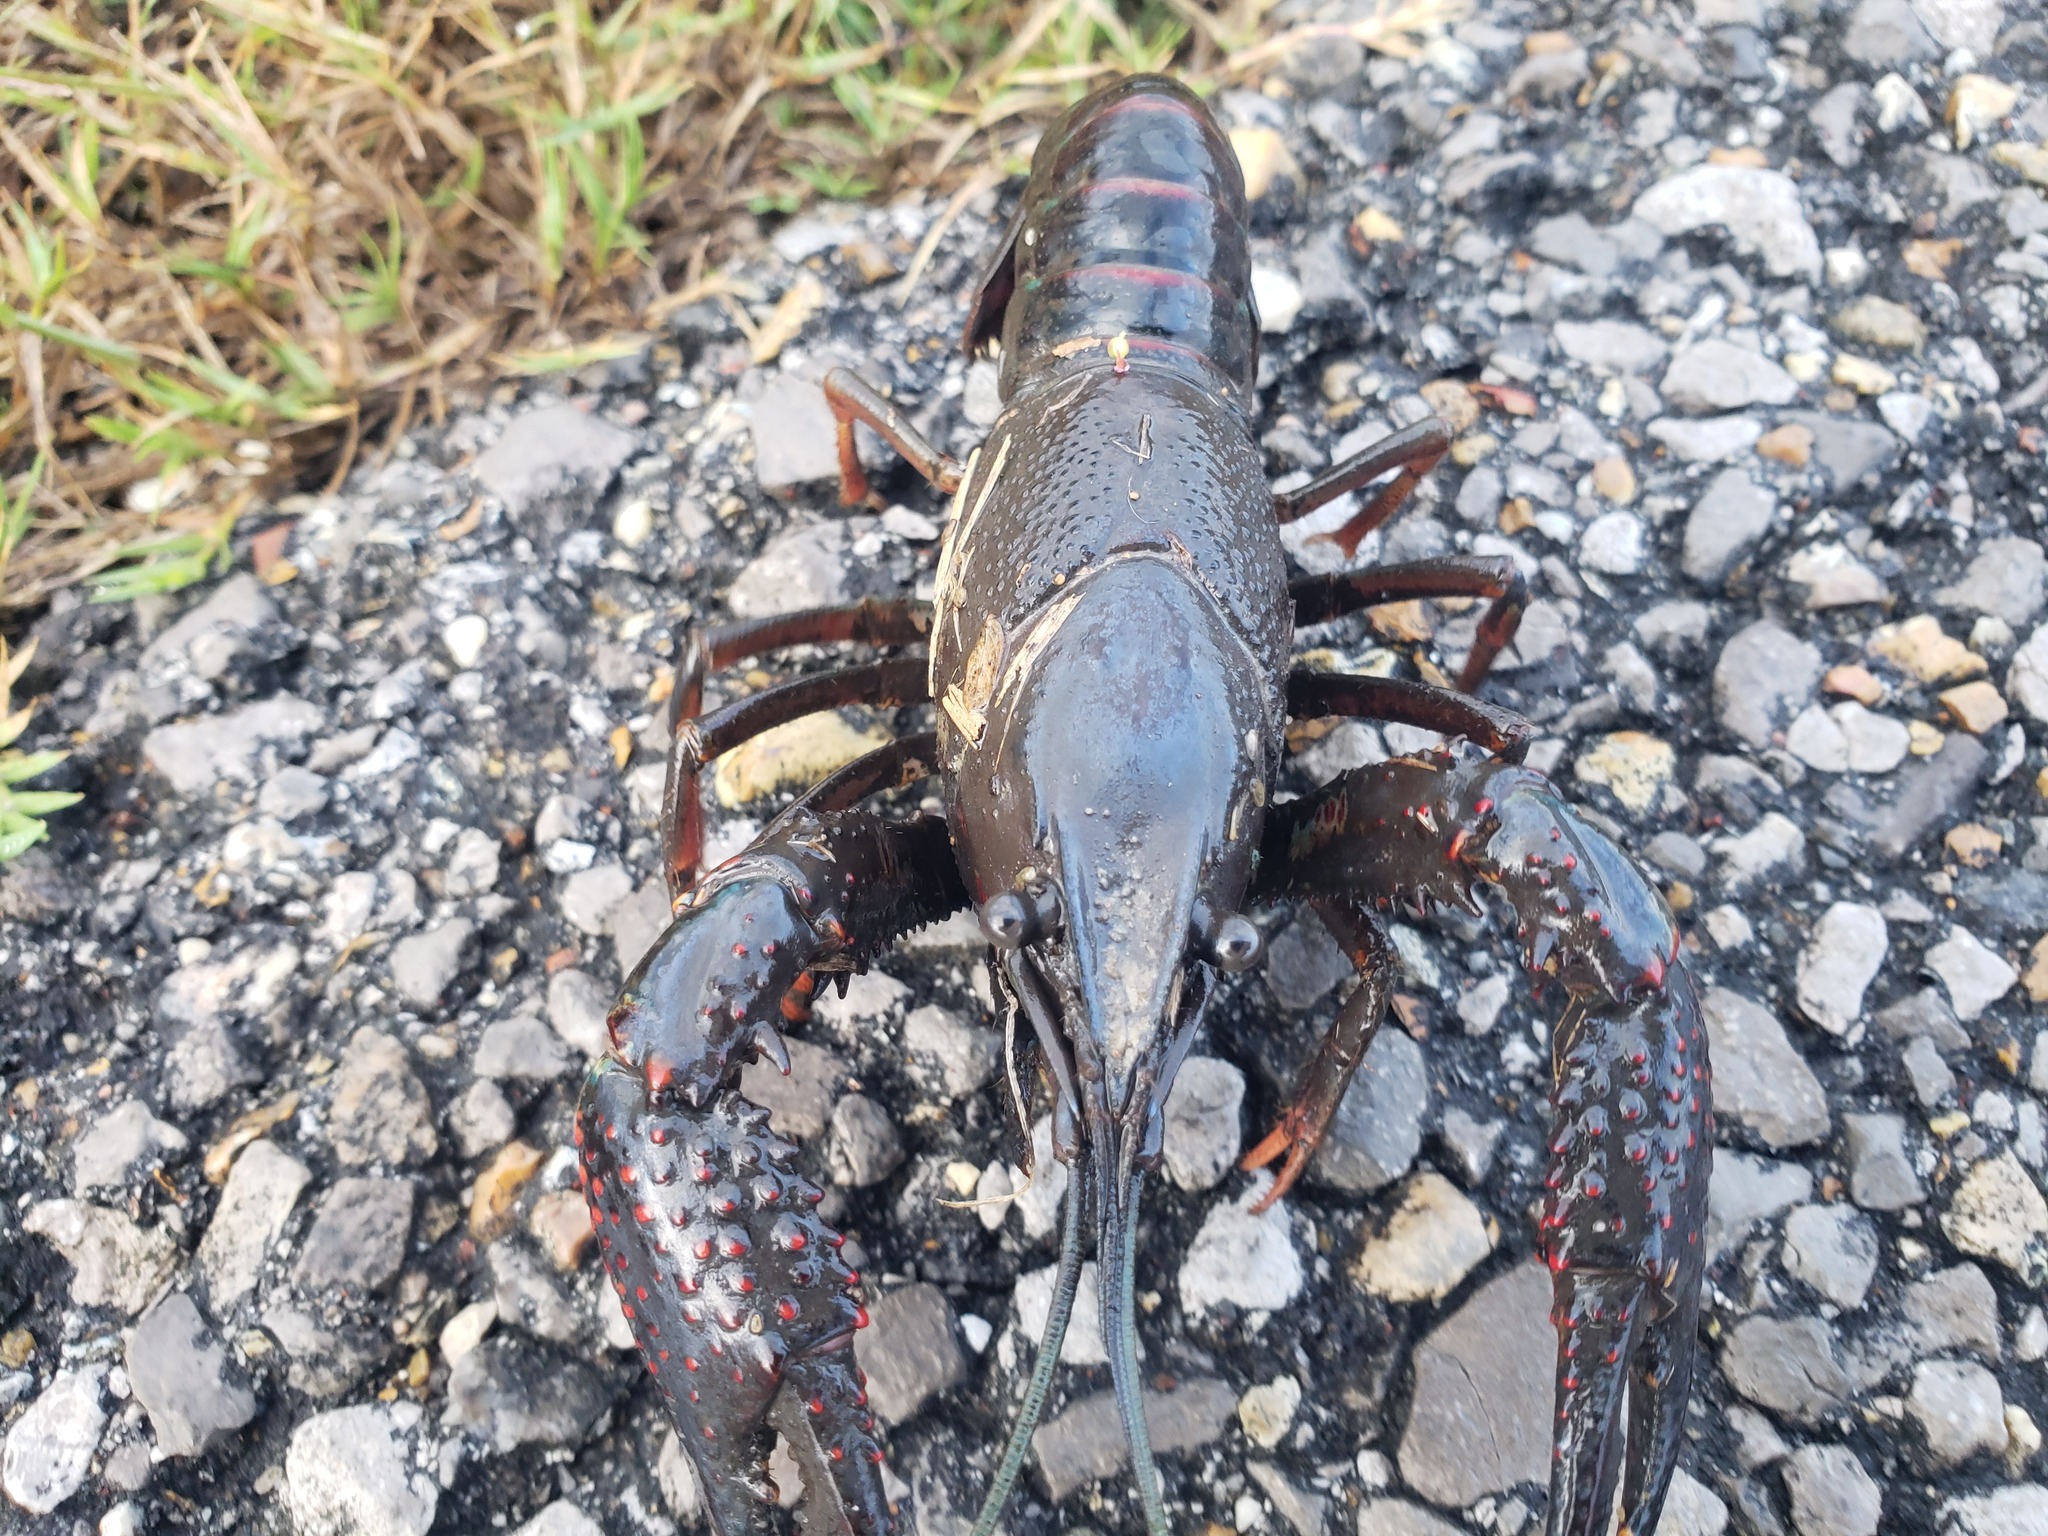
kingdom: Animalia
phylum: Arthropoda
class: Malacostraca
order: Decapoda
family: Cambaridae
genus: Procambarus
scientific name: Procambarus clarkii
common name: Red swamp crayfish
